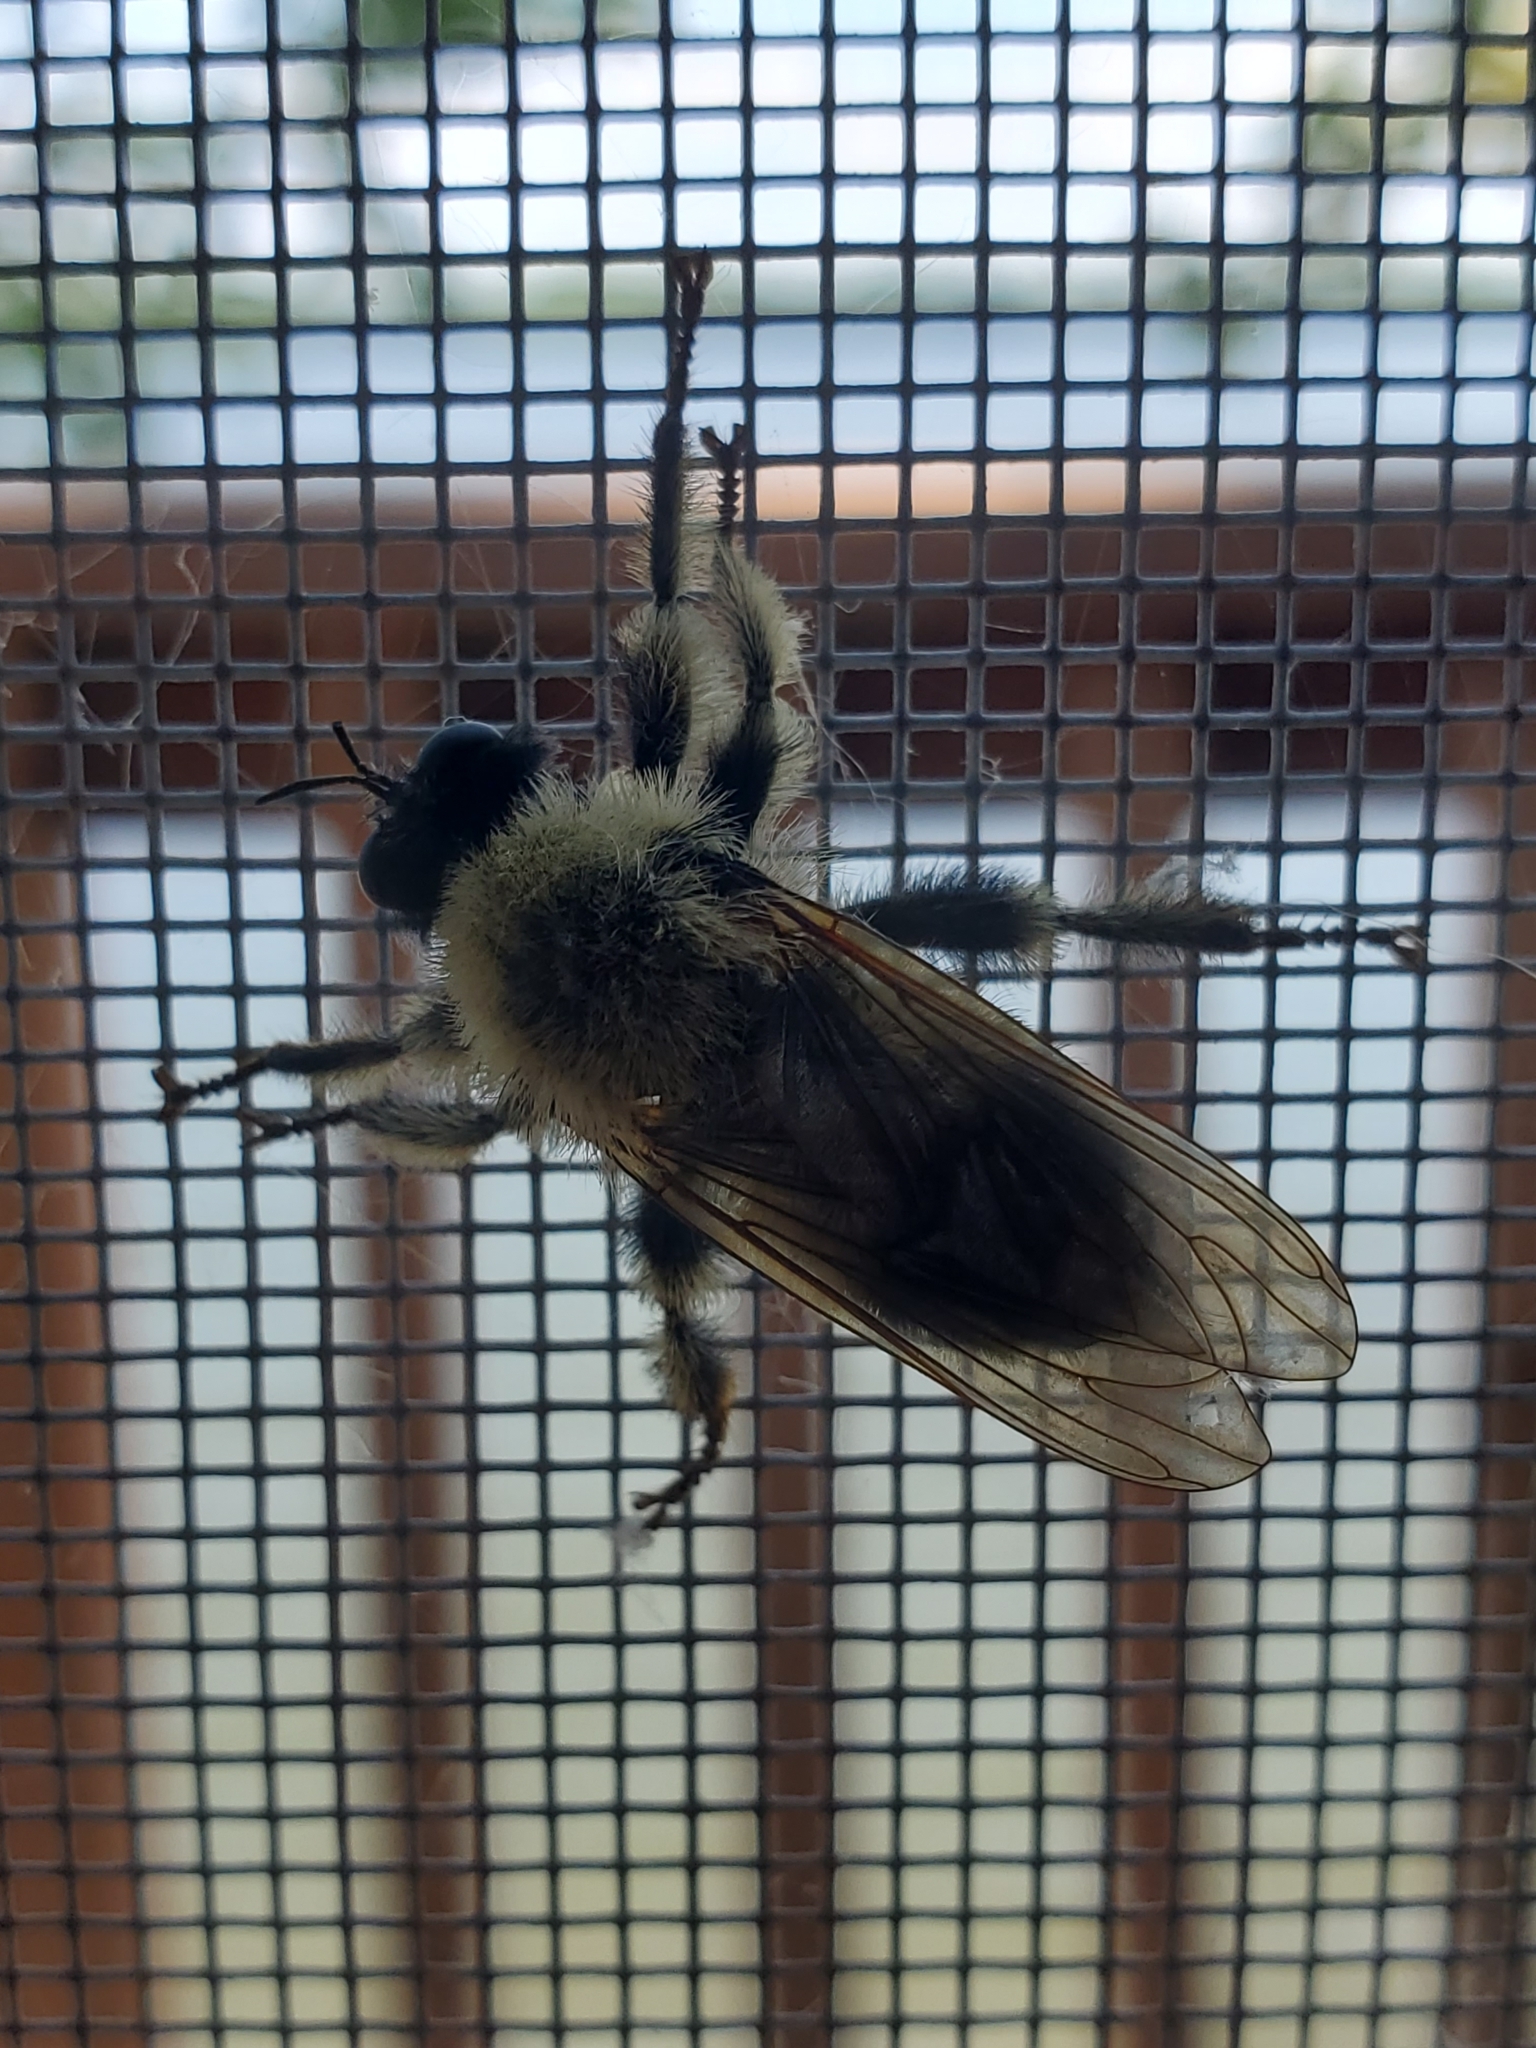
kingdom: Animalia
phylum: Arthropoda
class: Insecta
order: Diptera
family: Asilidae
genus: Laphria
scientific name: Laphria sacrator
